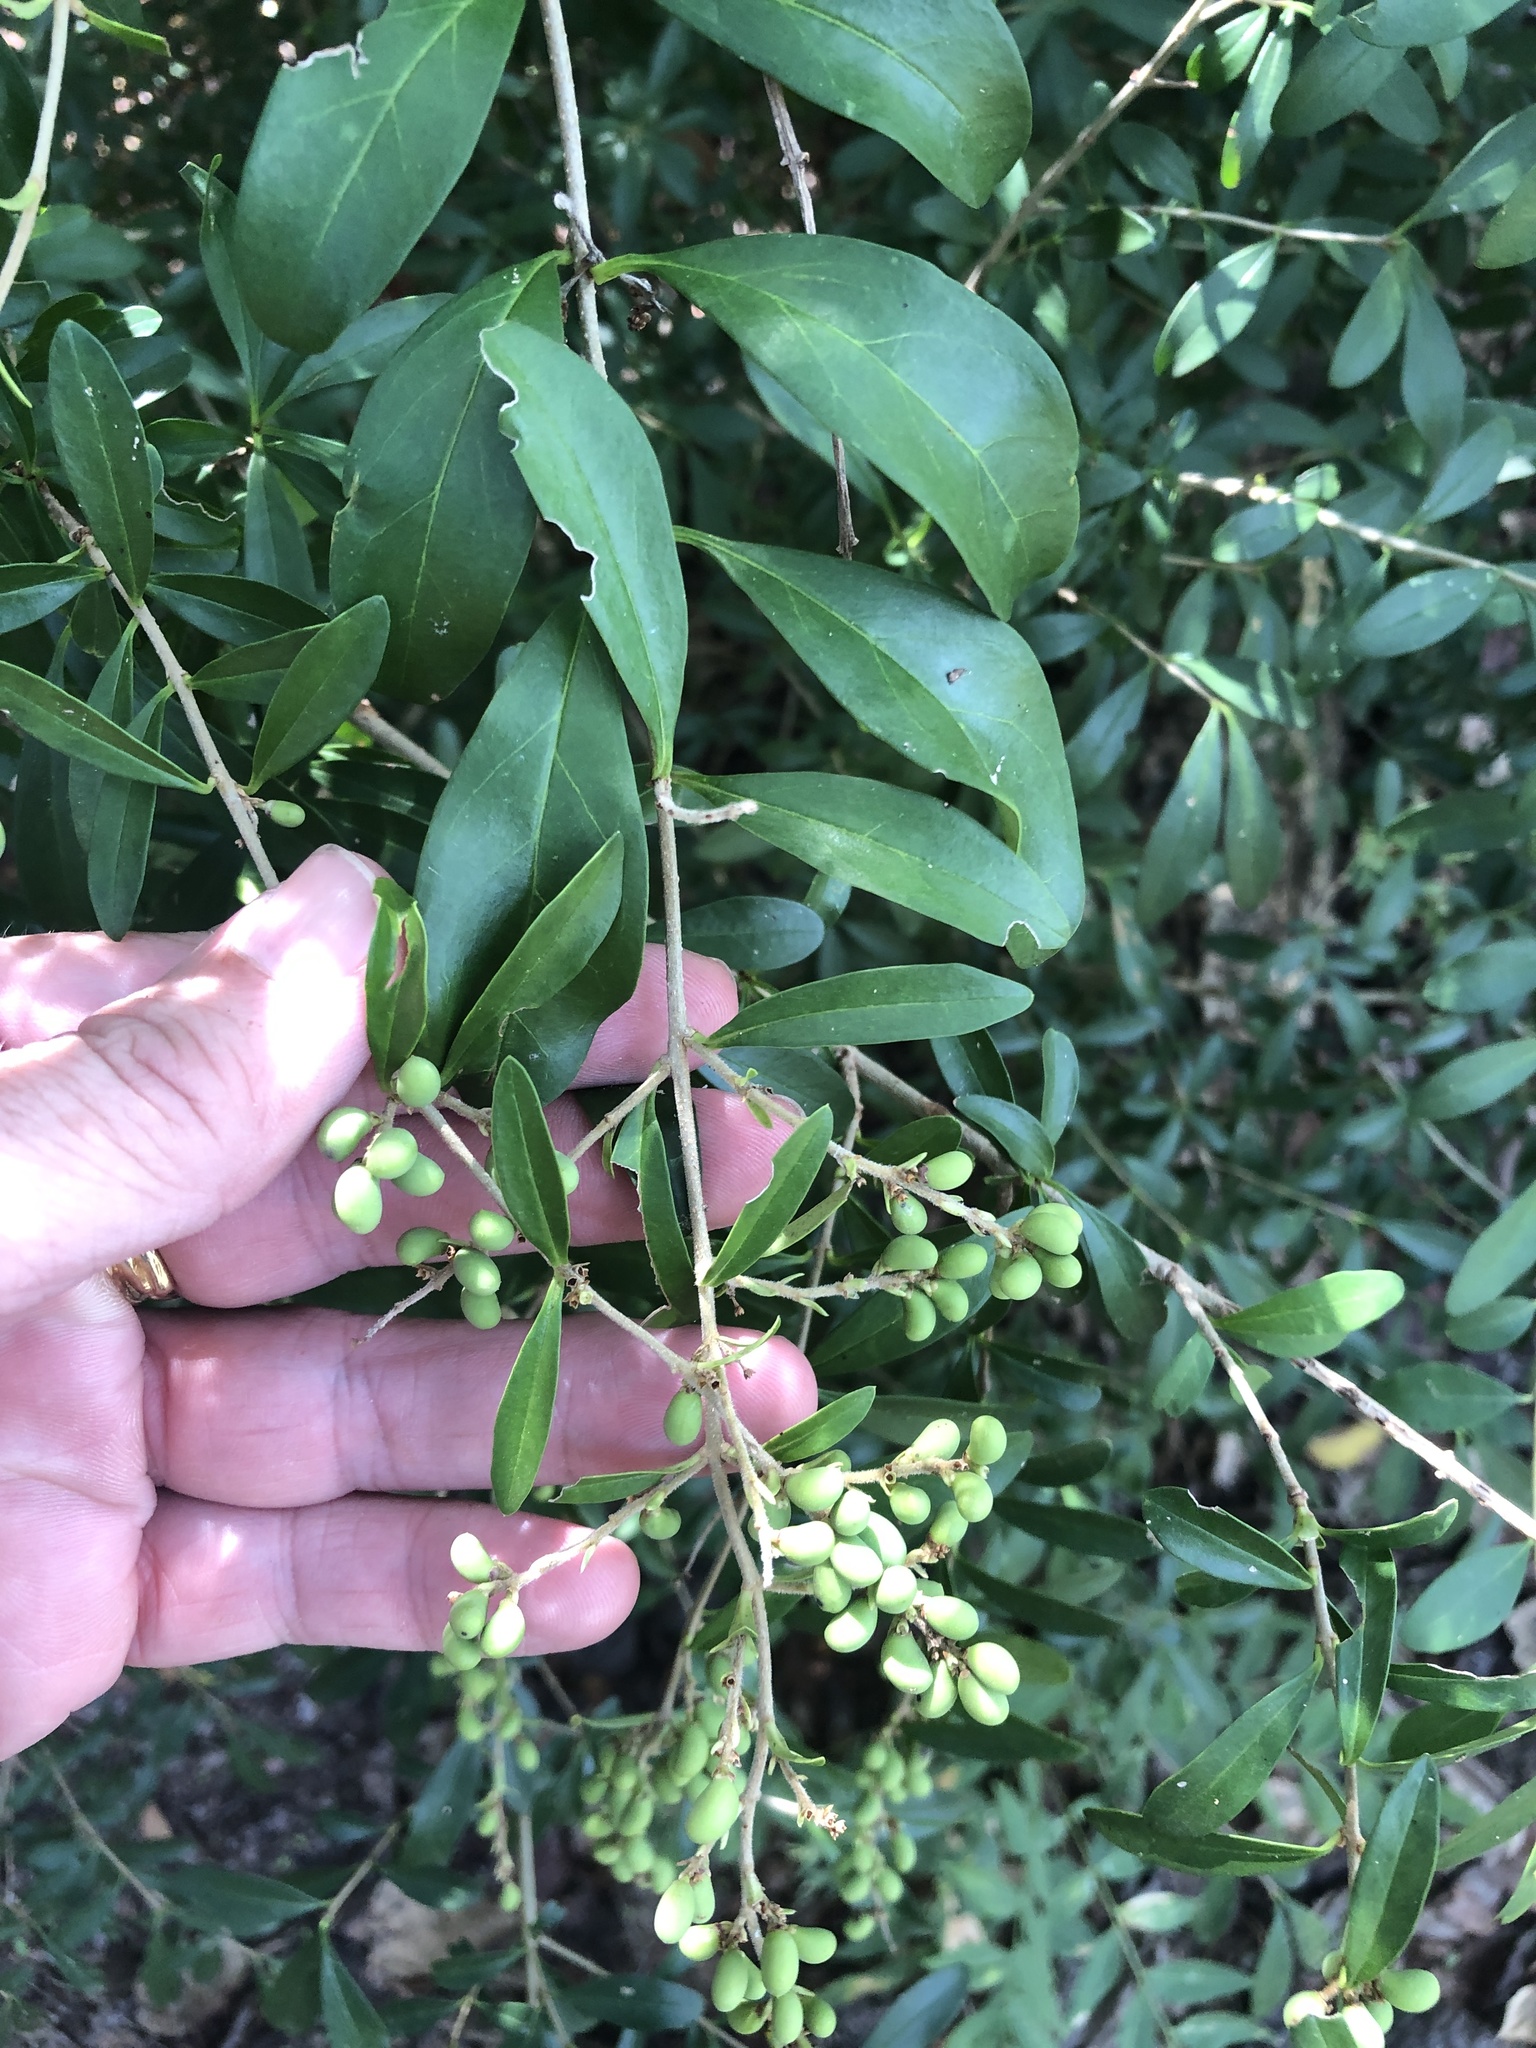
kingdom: Plantae
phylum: Tracheophyta
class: Magnoliopsida
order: Lamiales
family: Oleaceae
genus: Ligustrum
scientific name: Ligustrum quihoui
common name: Waxyleaf privet
